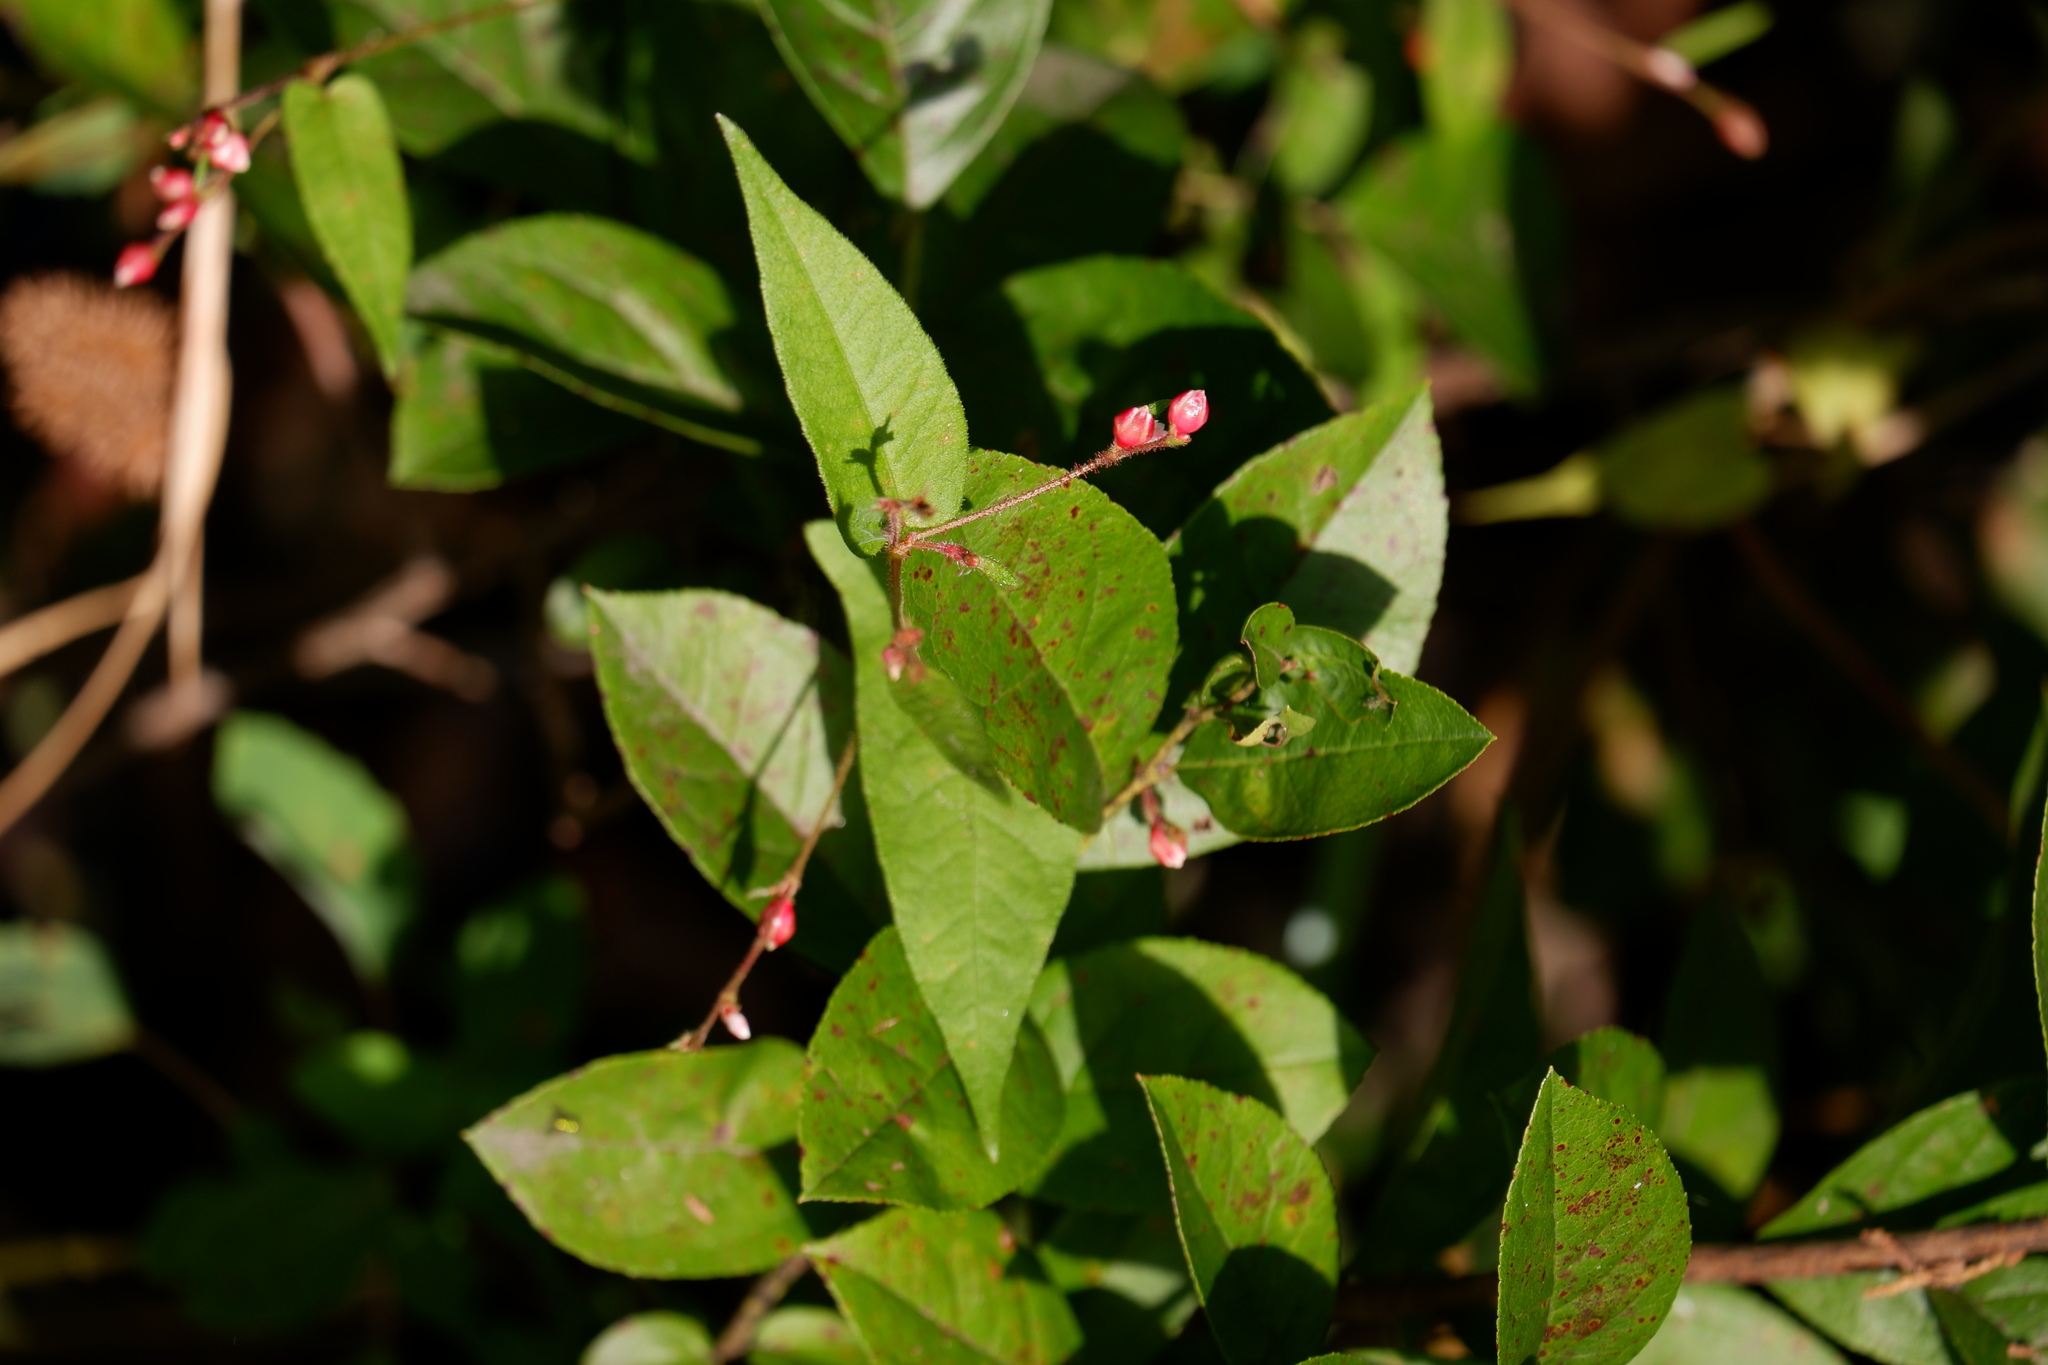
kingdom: Plantae
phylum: Tracheophyta
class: Magnoliopsida
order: Caryophyllales
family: Polygonaceae
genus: Persicaria
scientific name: Persicaria arifolia
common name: Halberd-leaved tear-thumb
